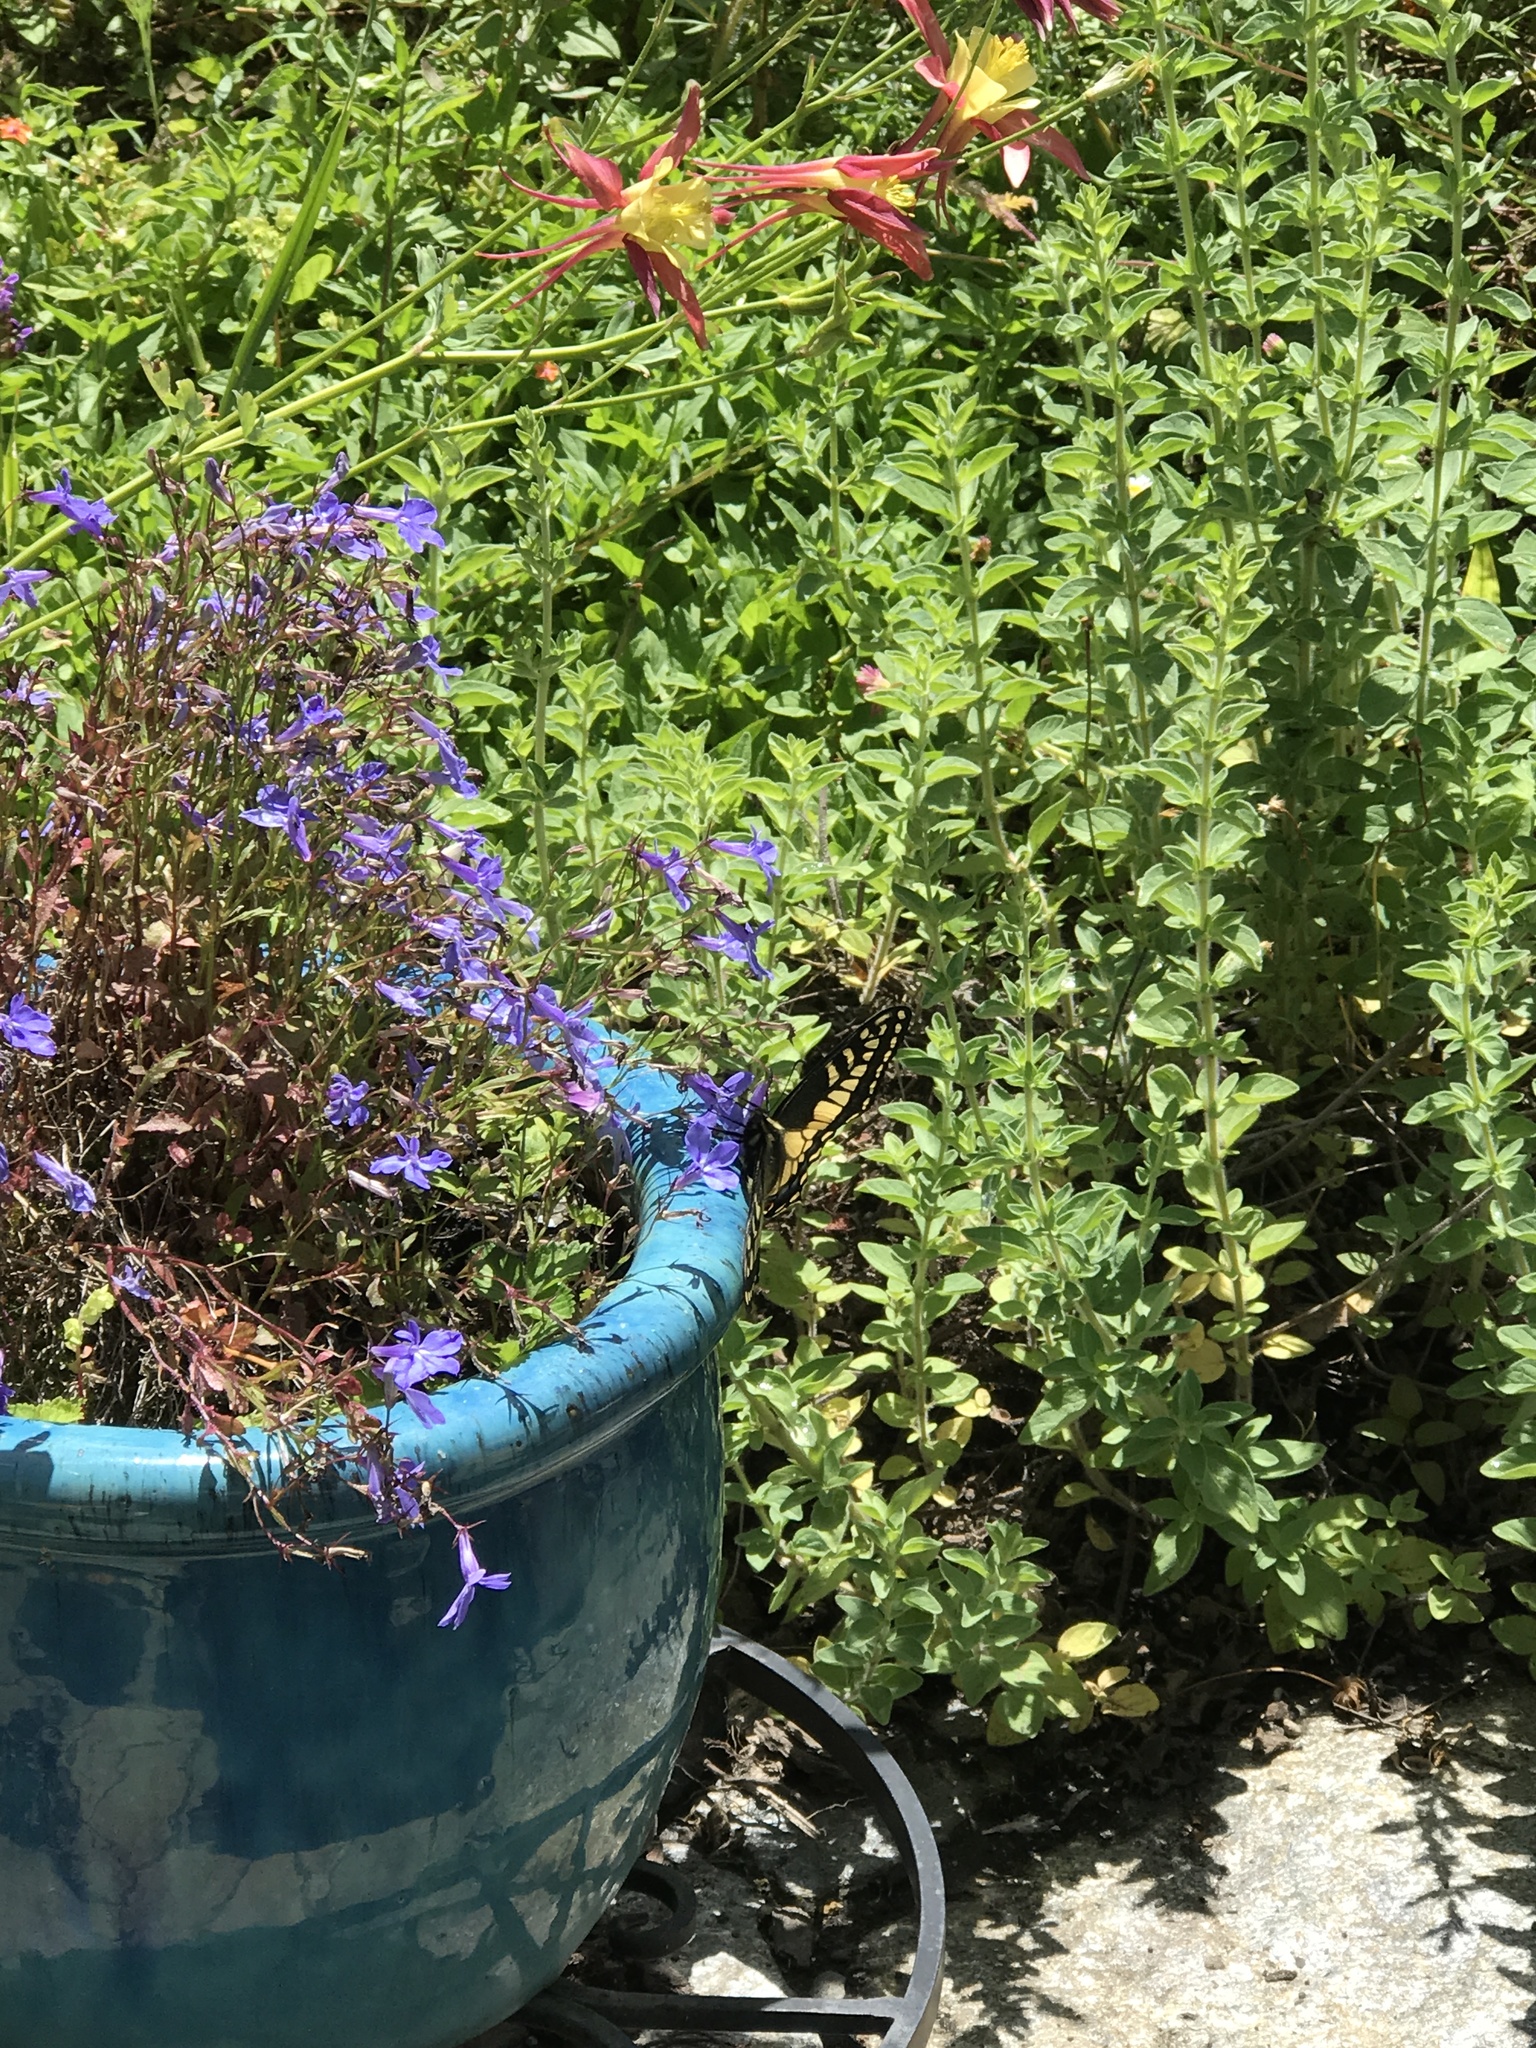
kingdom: Animalia
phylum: Arthropoda
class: Insecta
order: Lepidoptera
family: Papilionidae
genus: Papilio
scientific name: Papilio zelicaon
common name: Anise swallowtail
